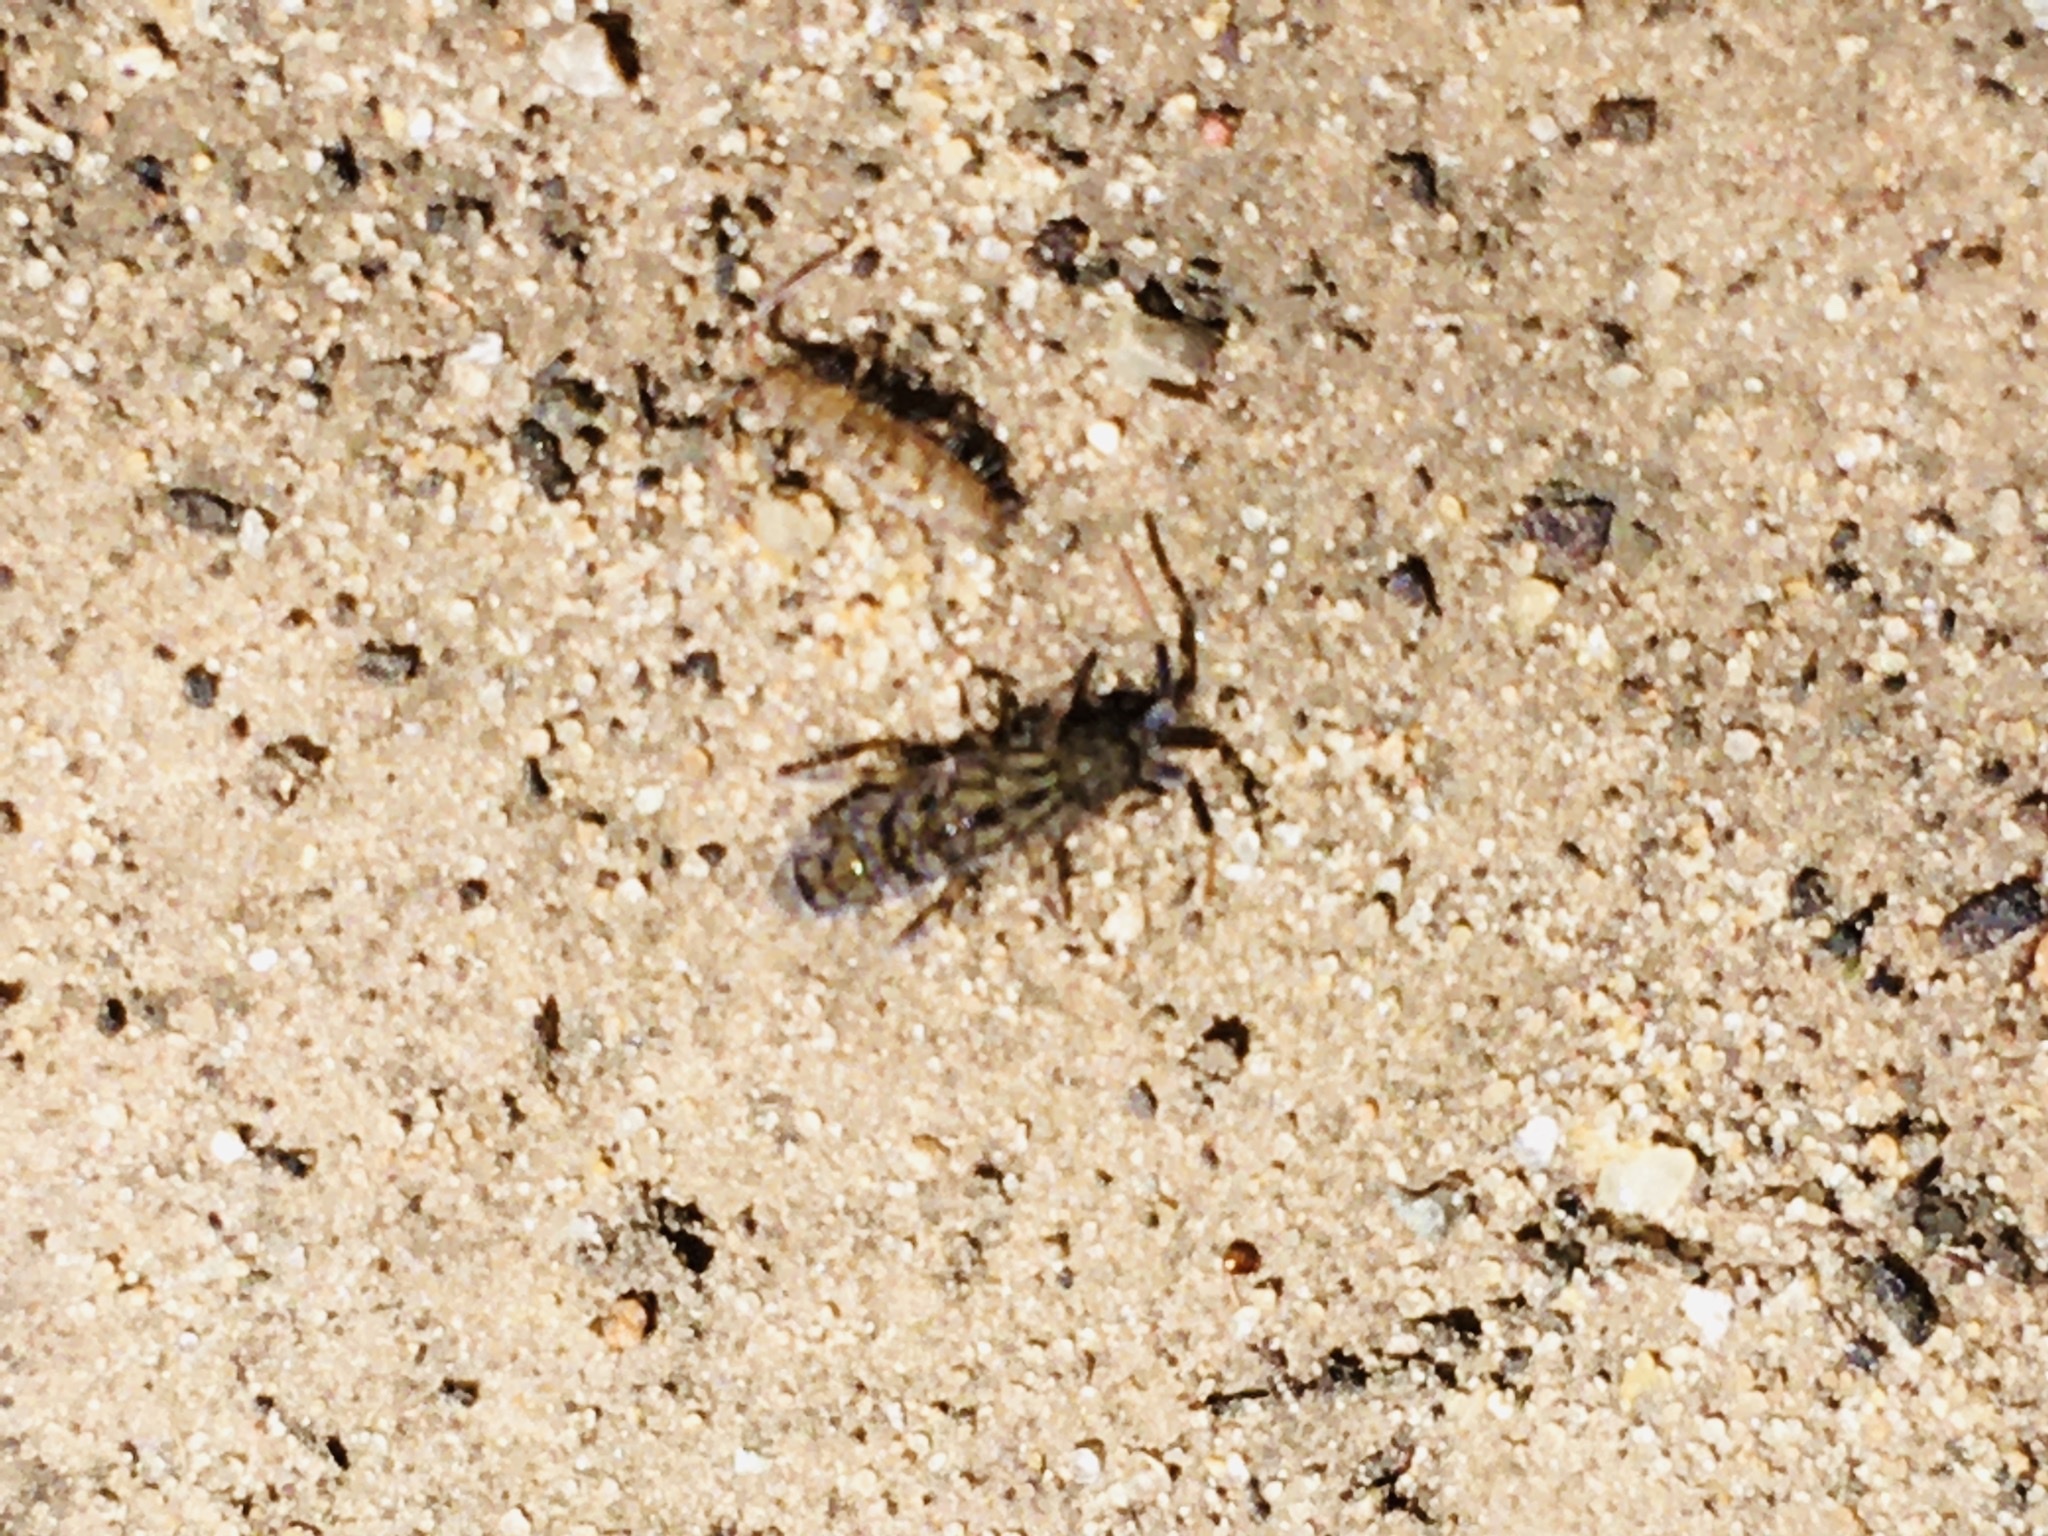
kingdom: Animalia
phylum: Arthropoda
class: Collembola
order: Entomobryomorpha
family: Orchesellidae
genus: Orchesella
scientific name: Orchesella villosa
